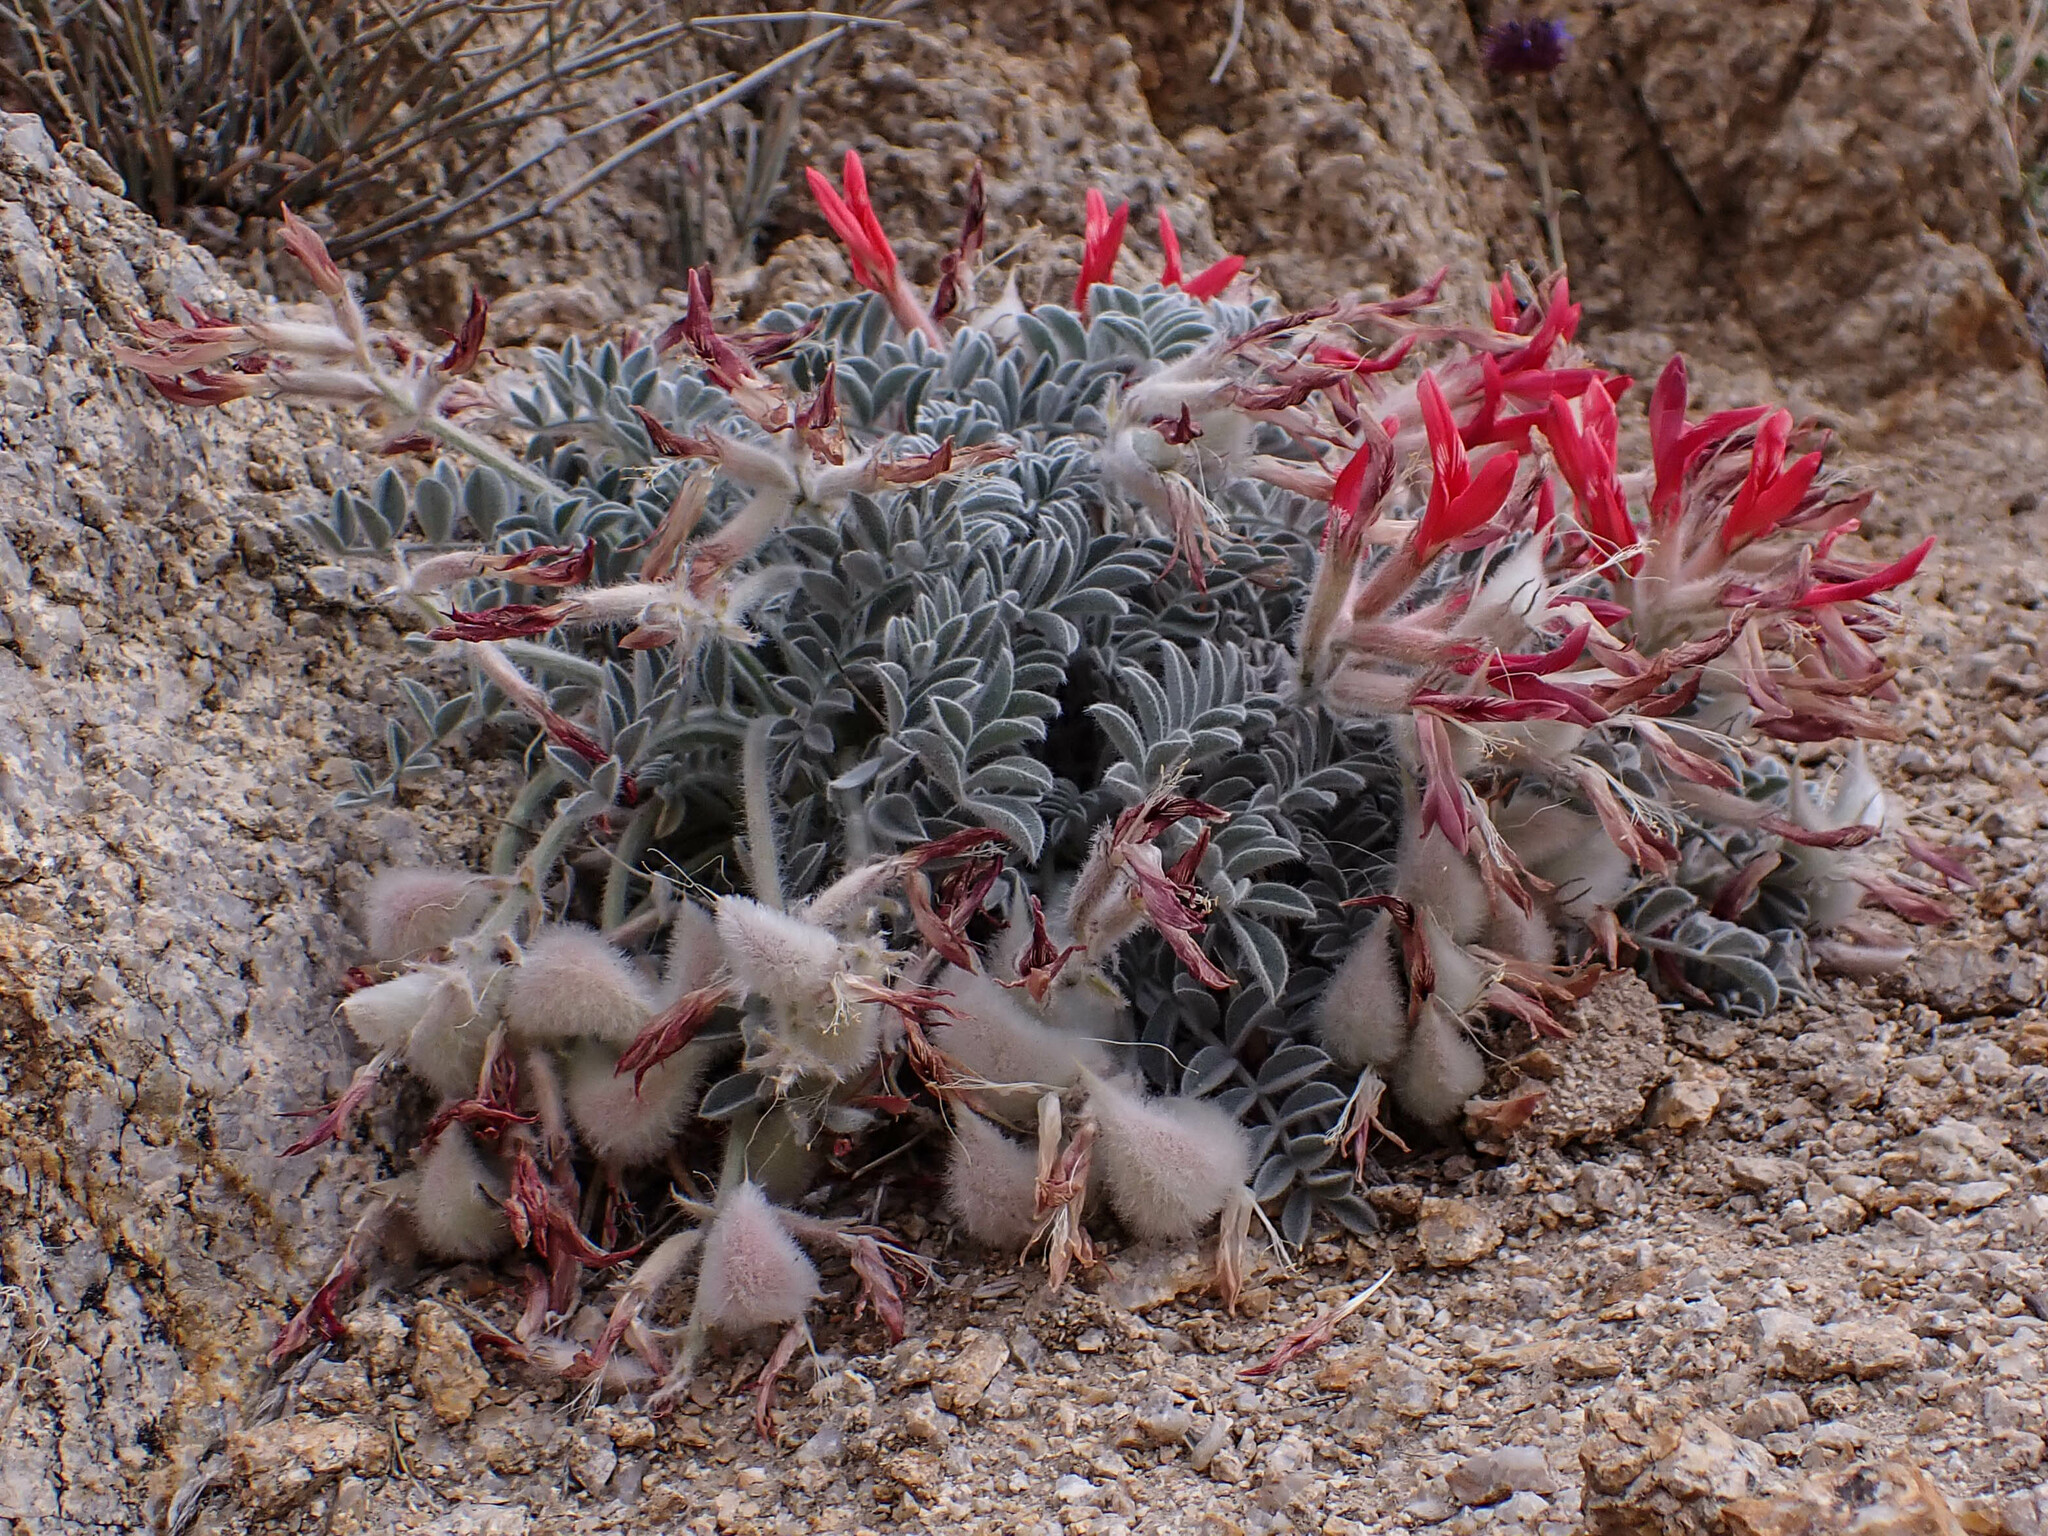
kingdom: Plantae
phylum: Tracheophyta
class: Magnoliopsida
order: Fabales
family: Fabaceae
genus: Astragalus
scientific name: Astragalus coccineus
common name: Scarlet milk-vetch
